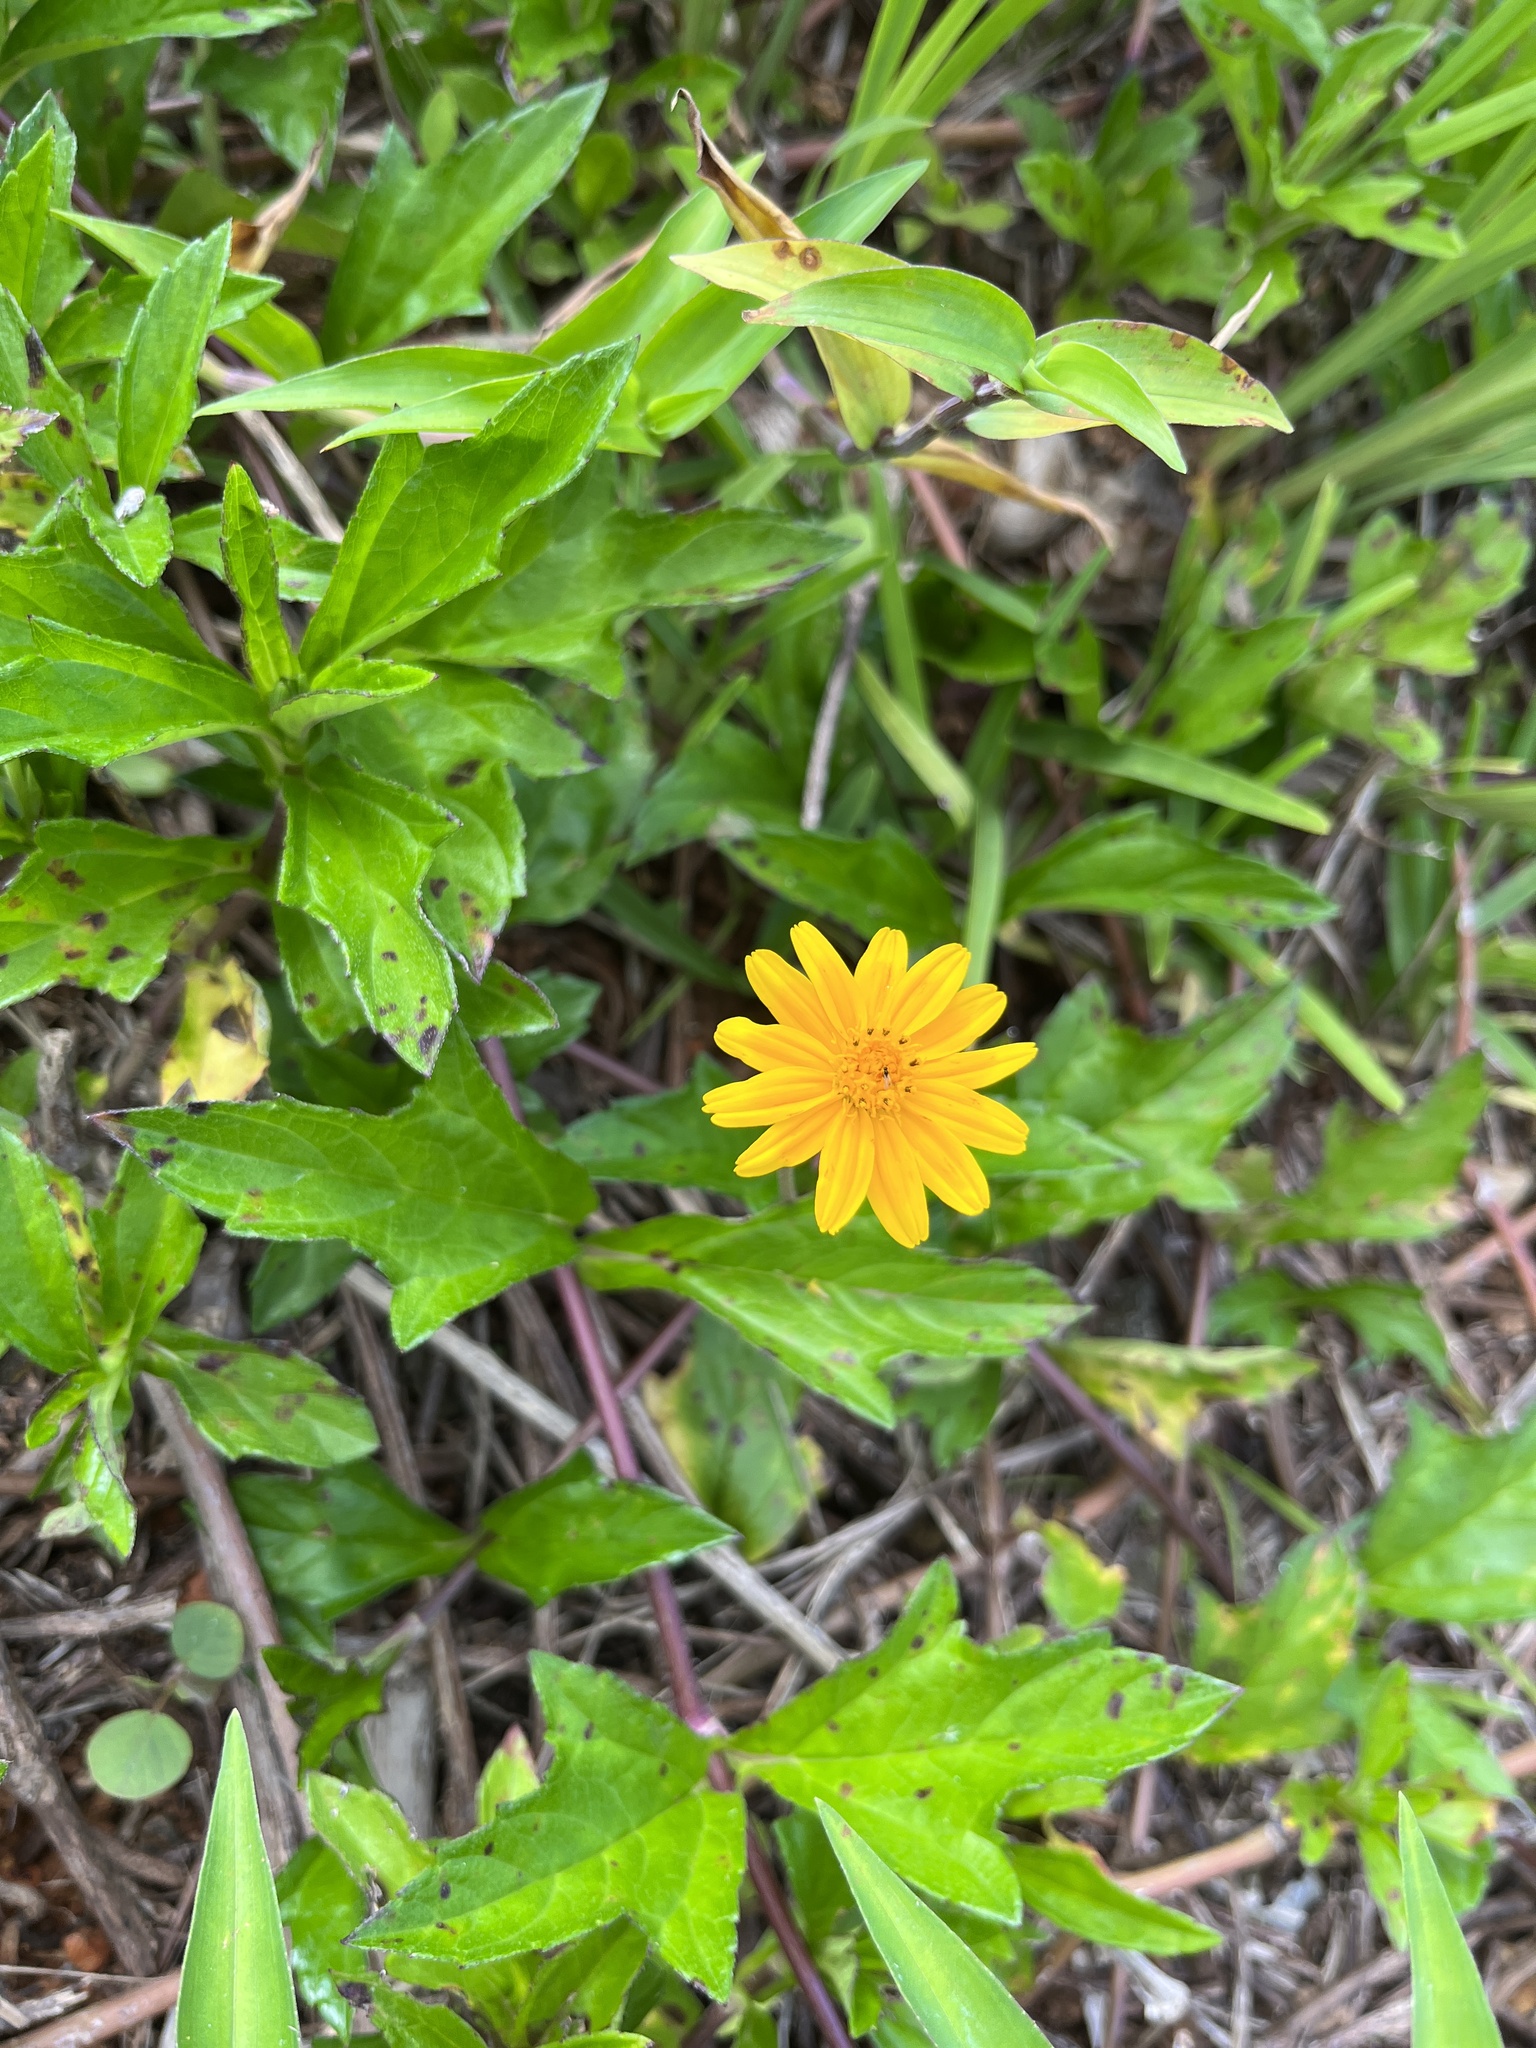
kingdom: Plantae
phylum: Tracheophyta
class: Magnoliopsida
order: Asterales
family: Asteraceae
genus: Sphagneticola
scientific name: Sphagneticola trilobata
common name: Bay biscayne creeping-oxeye
